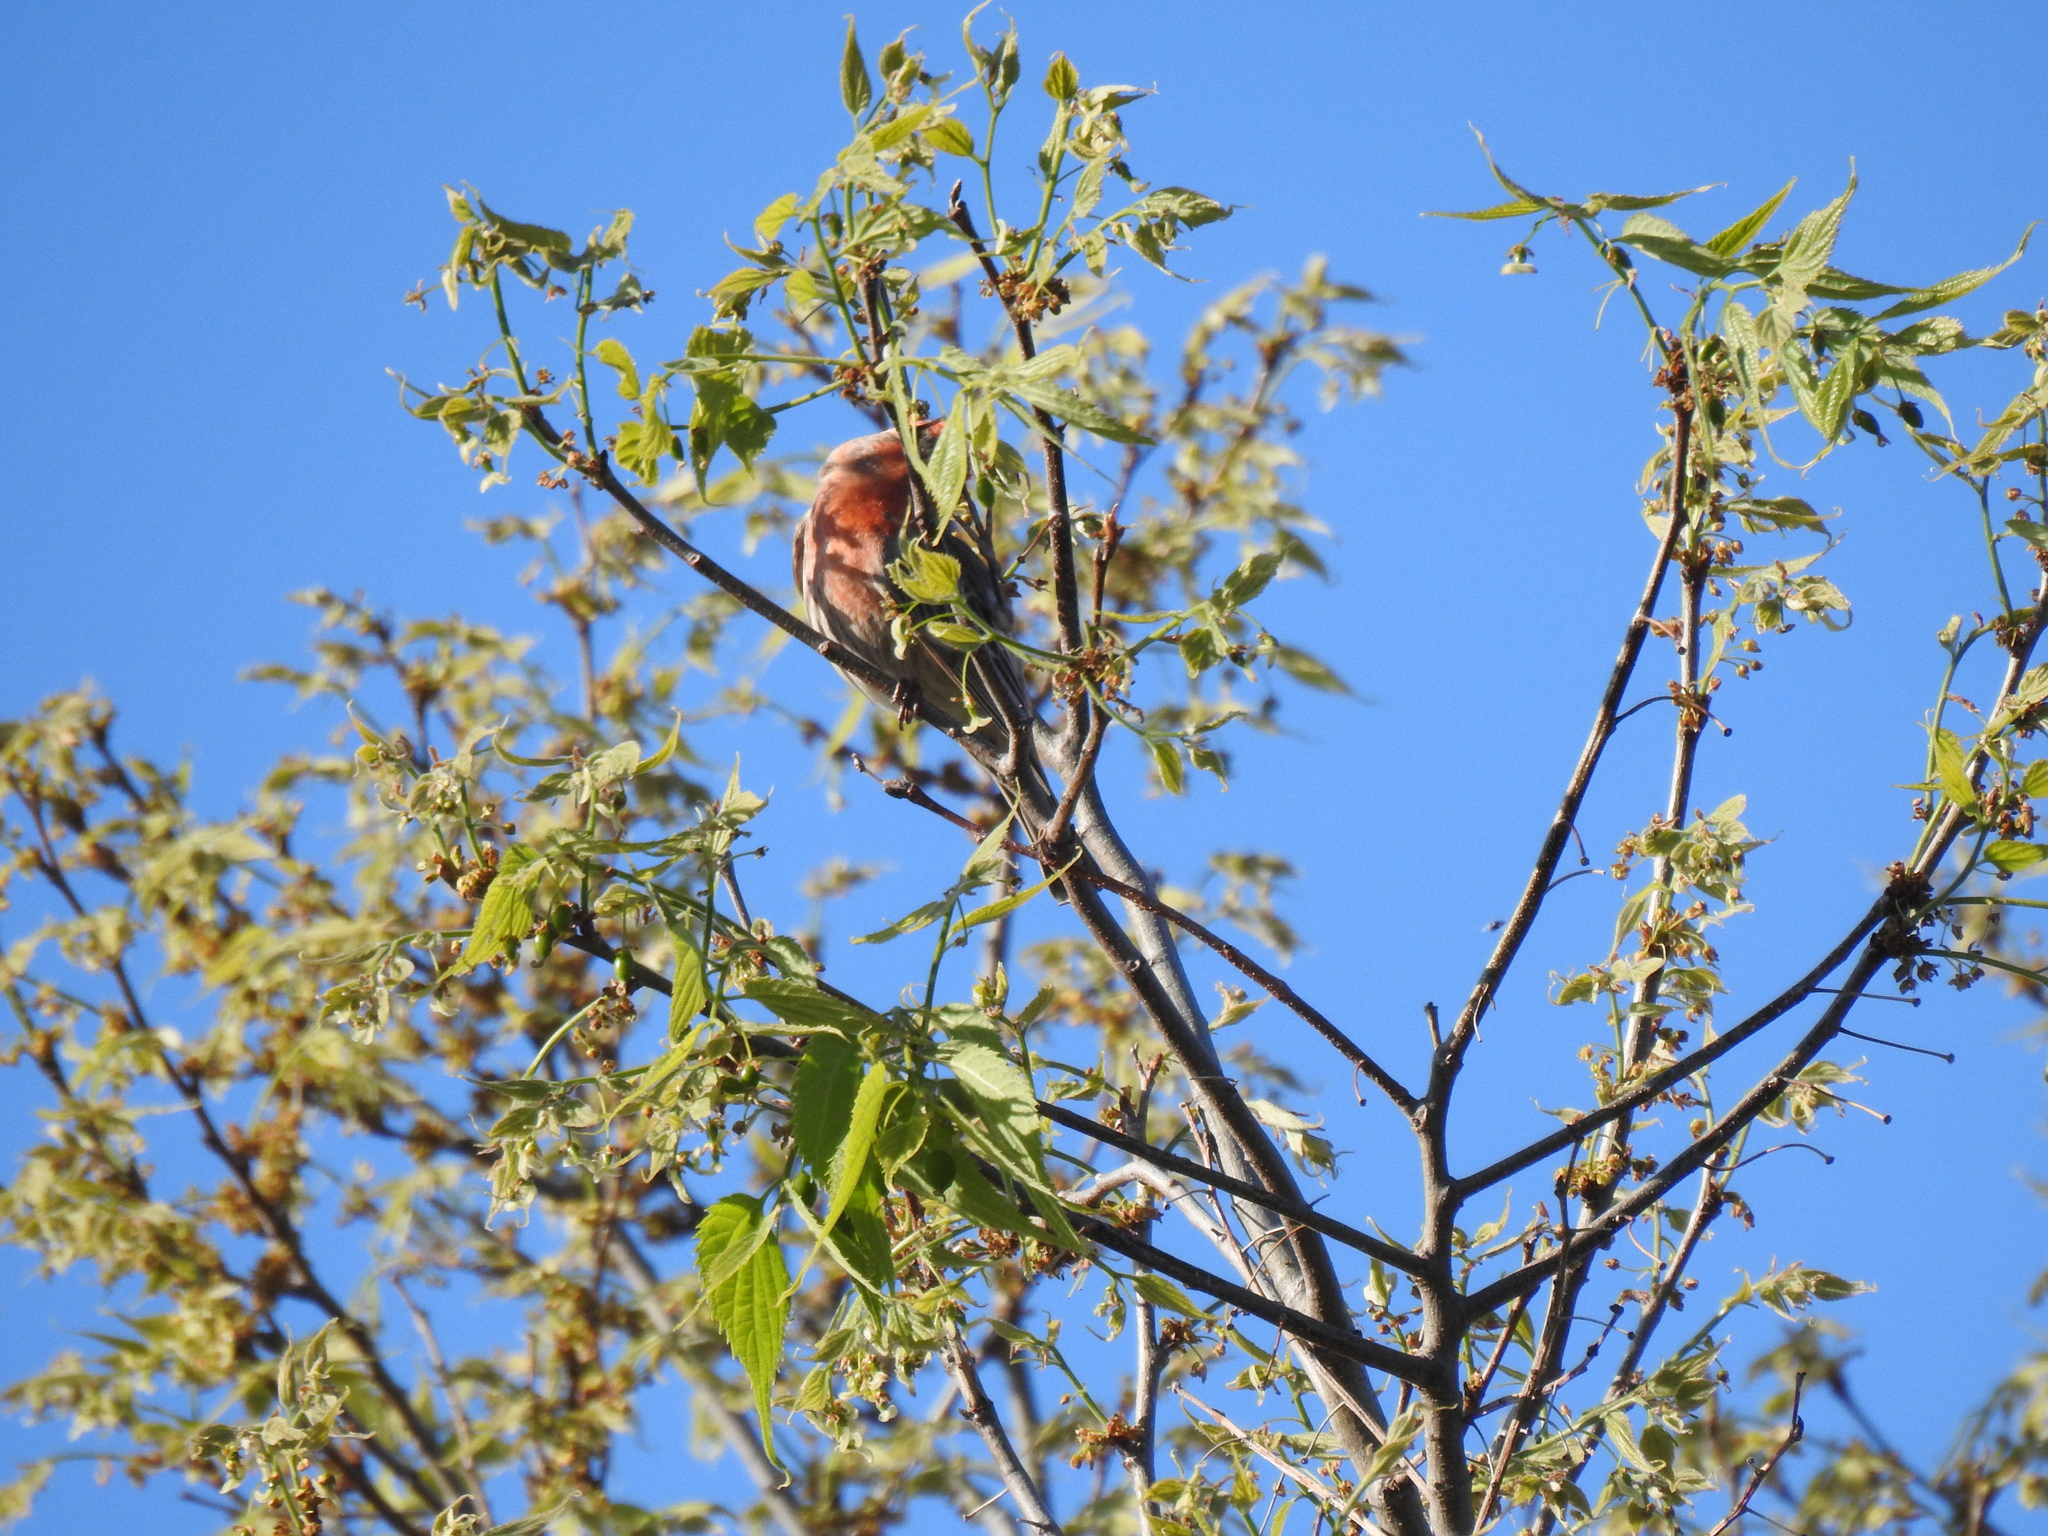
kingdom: Animalia
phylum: Chordata
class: Aves
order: Passeriformes
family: Fringillidae
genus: Haemorhous
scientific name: Haemorhous mexicanus
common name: House finch
